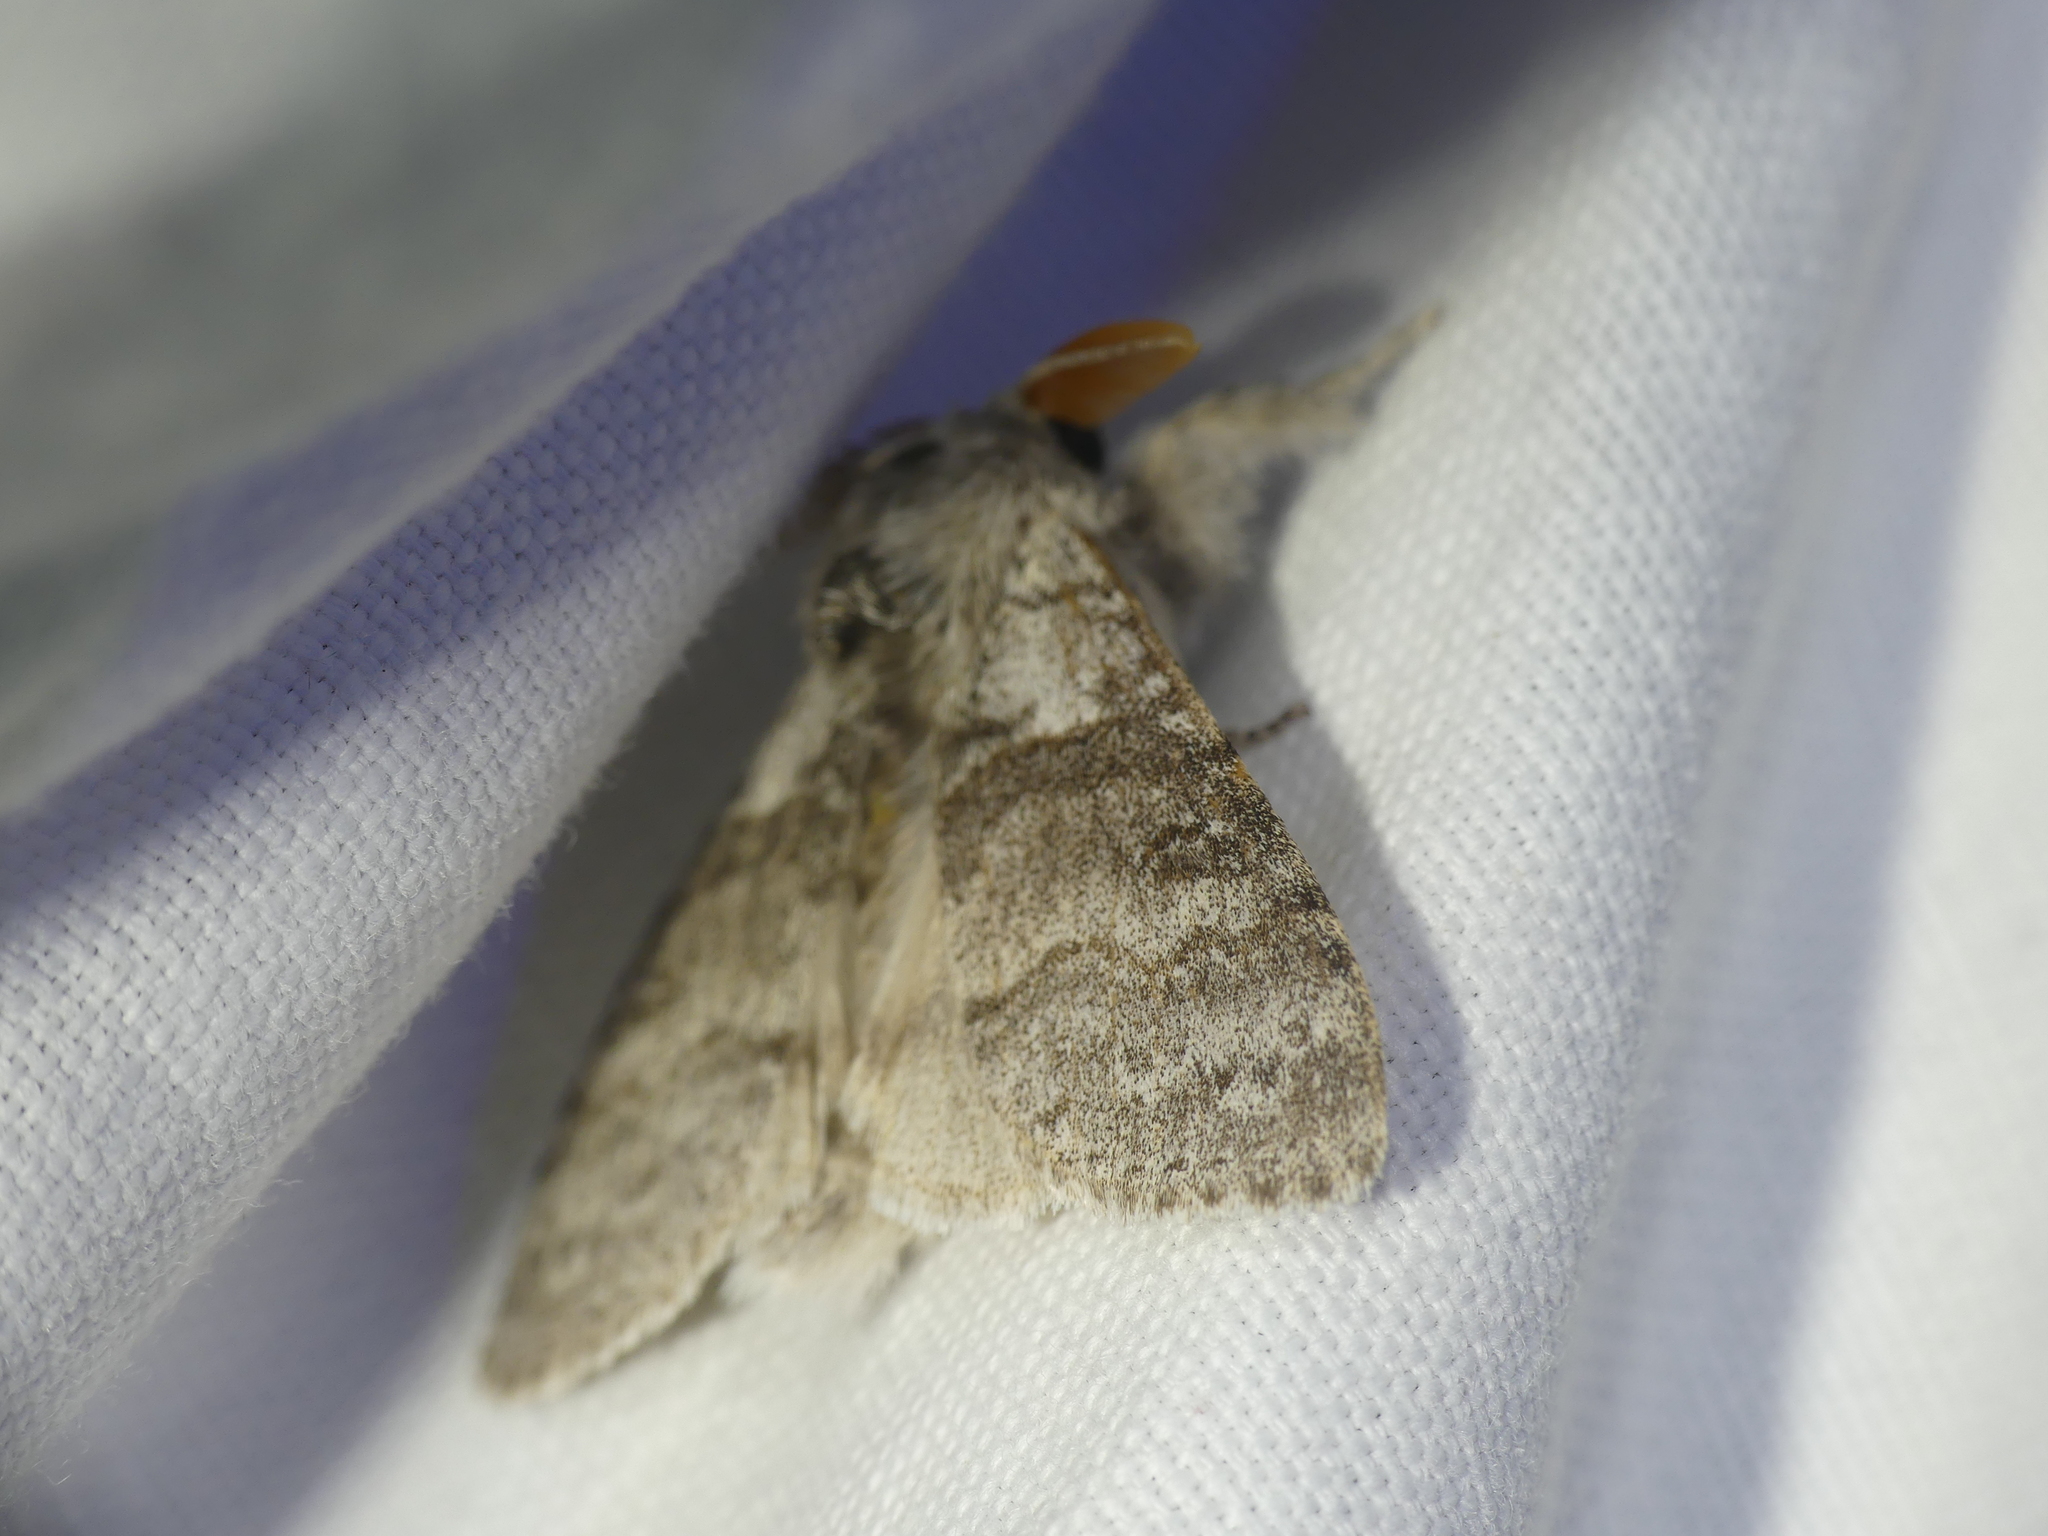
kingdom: Animalia
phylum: Arthropoda
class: Insecta
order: Lepidoptera
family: Erebidae
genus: Calliteara
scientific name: Calliteara pudibunda
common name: Pale tussock
